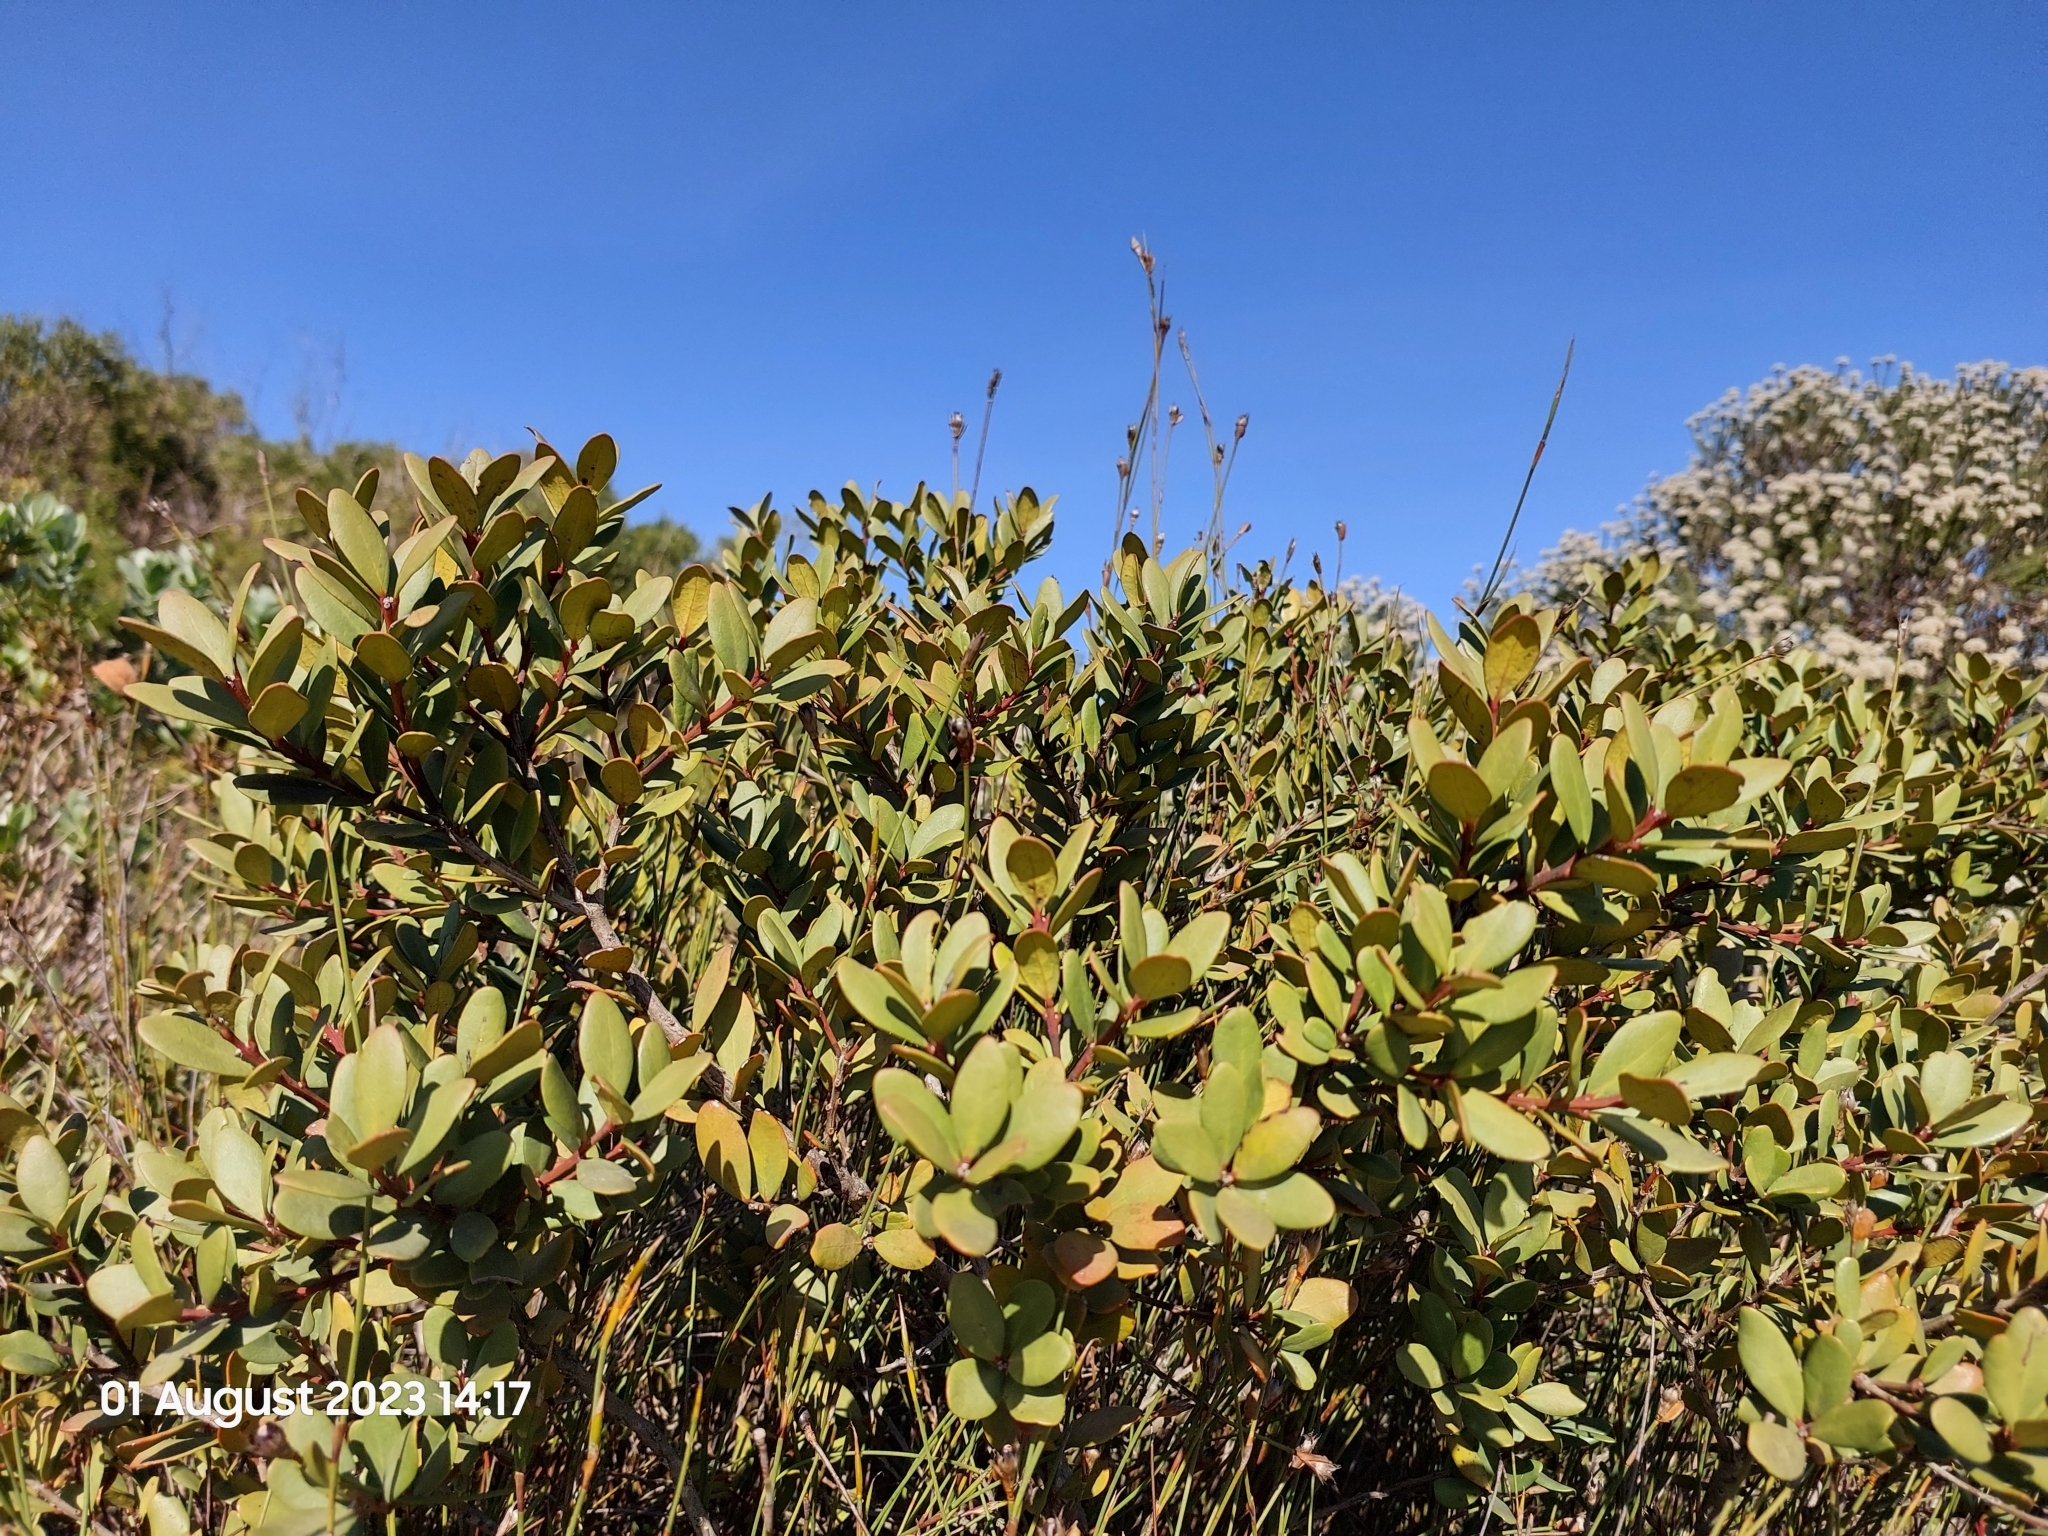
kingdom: Plantae
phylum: Tracheophyta
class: Magnoliopsida
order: Ericales
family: Ebenaceae
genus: Euclea
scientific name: Euclea racemosa
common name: Dune guarri
